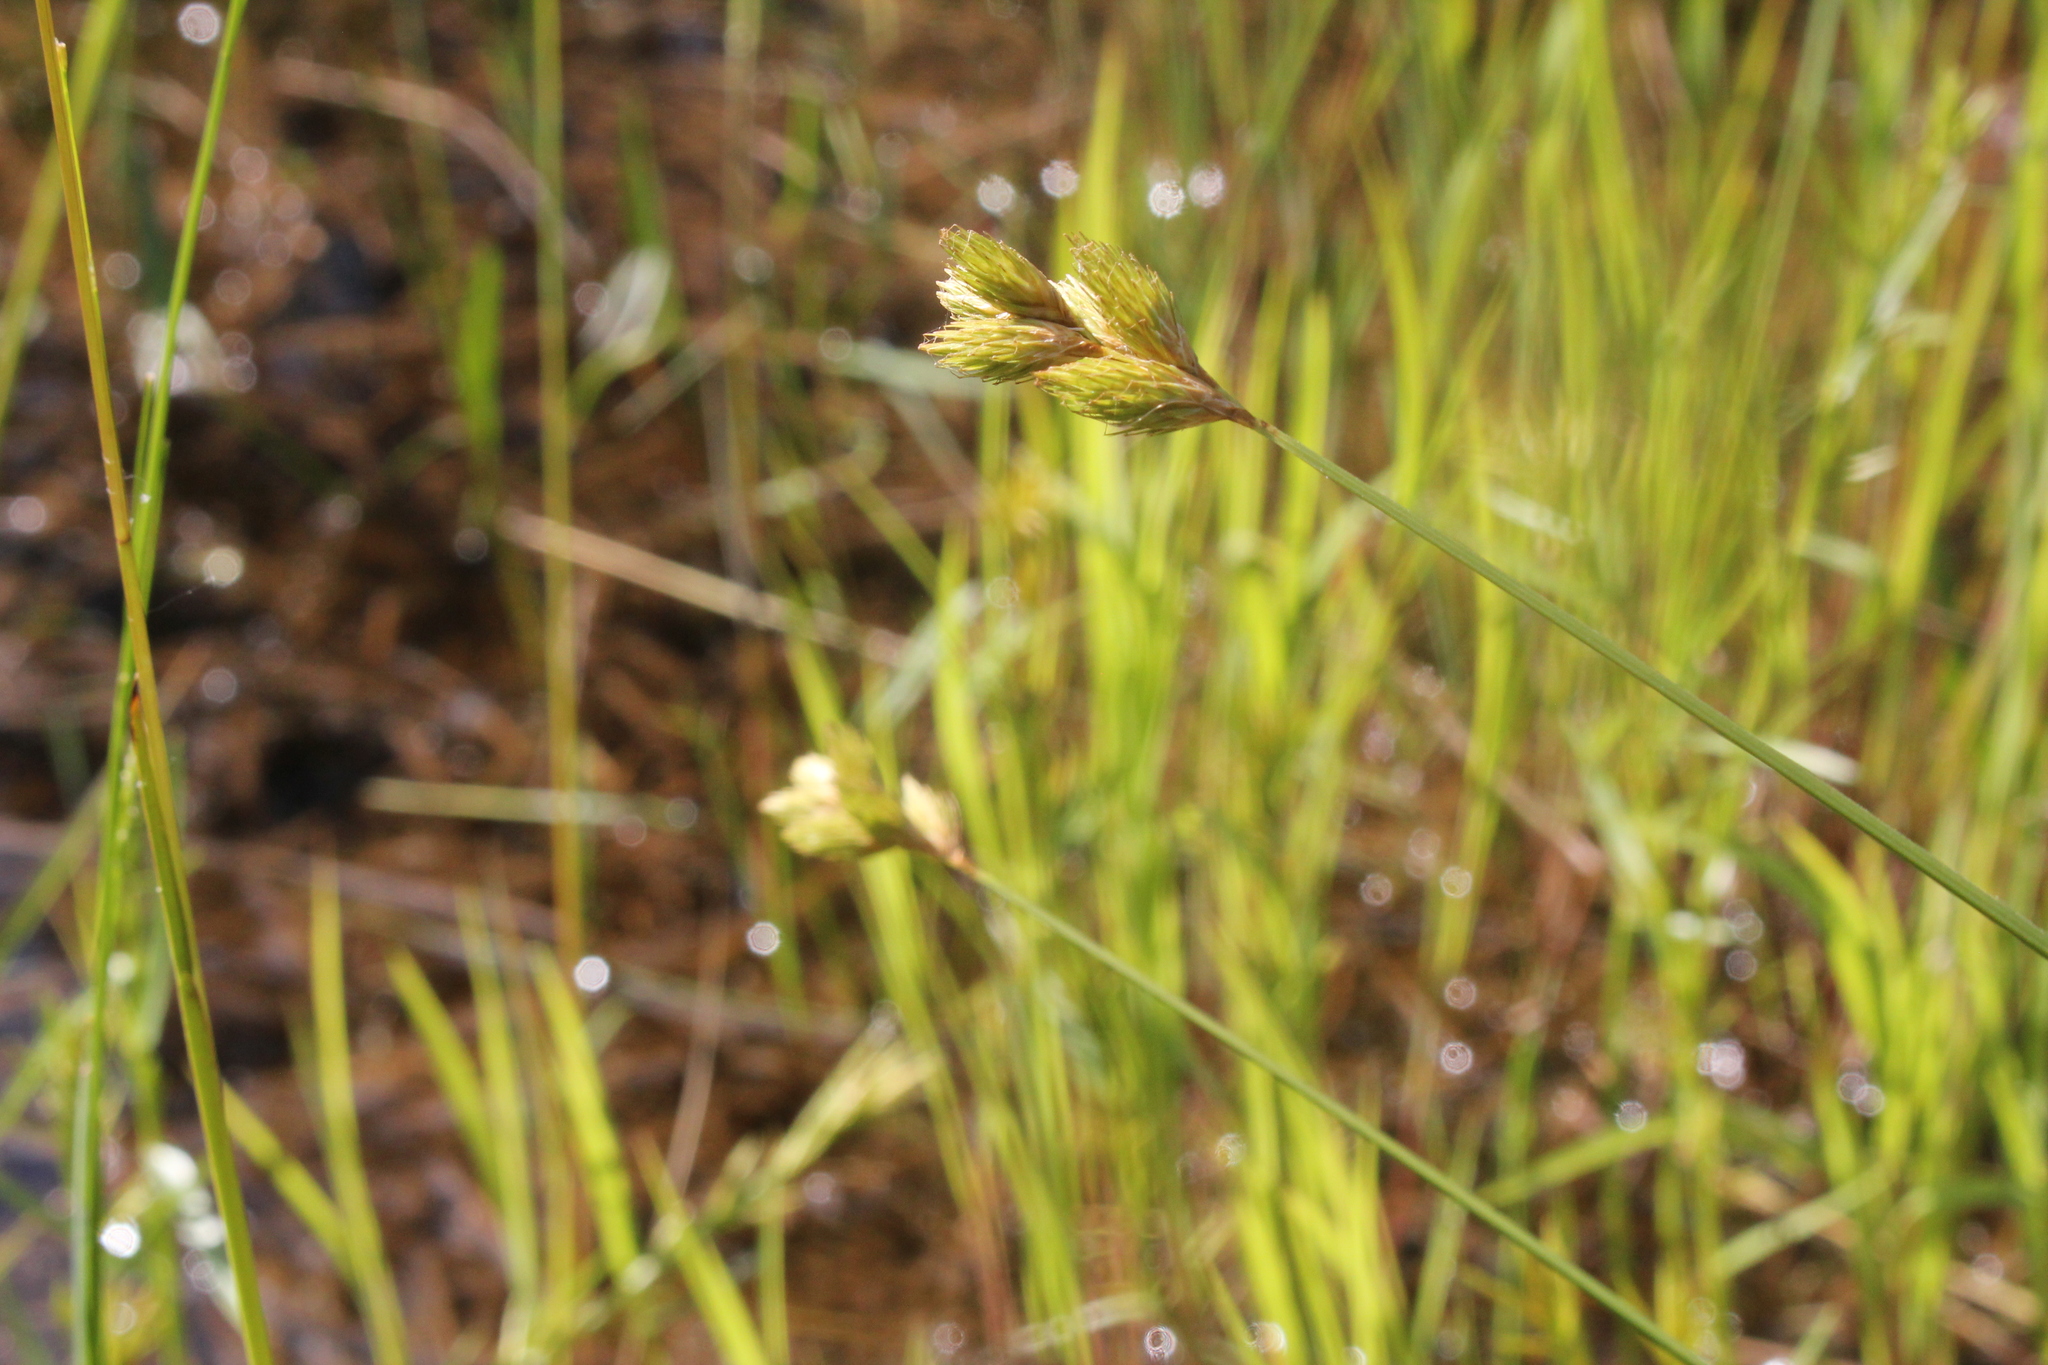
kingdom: Plantae
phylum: Tracheophyta
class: Liliopsida
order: Poales
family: Cyperaceae
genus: Carex
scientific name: Carex scoparia
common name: Broom sedge
